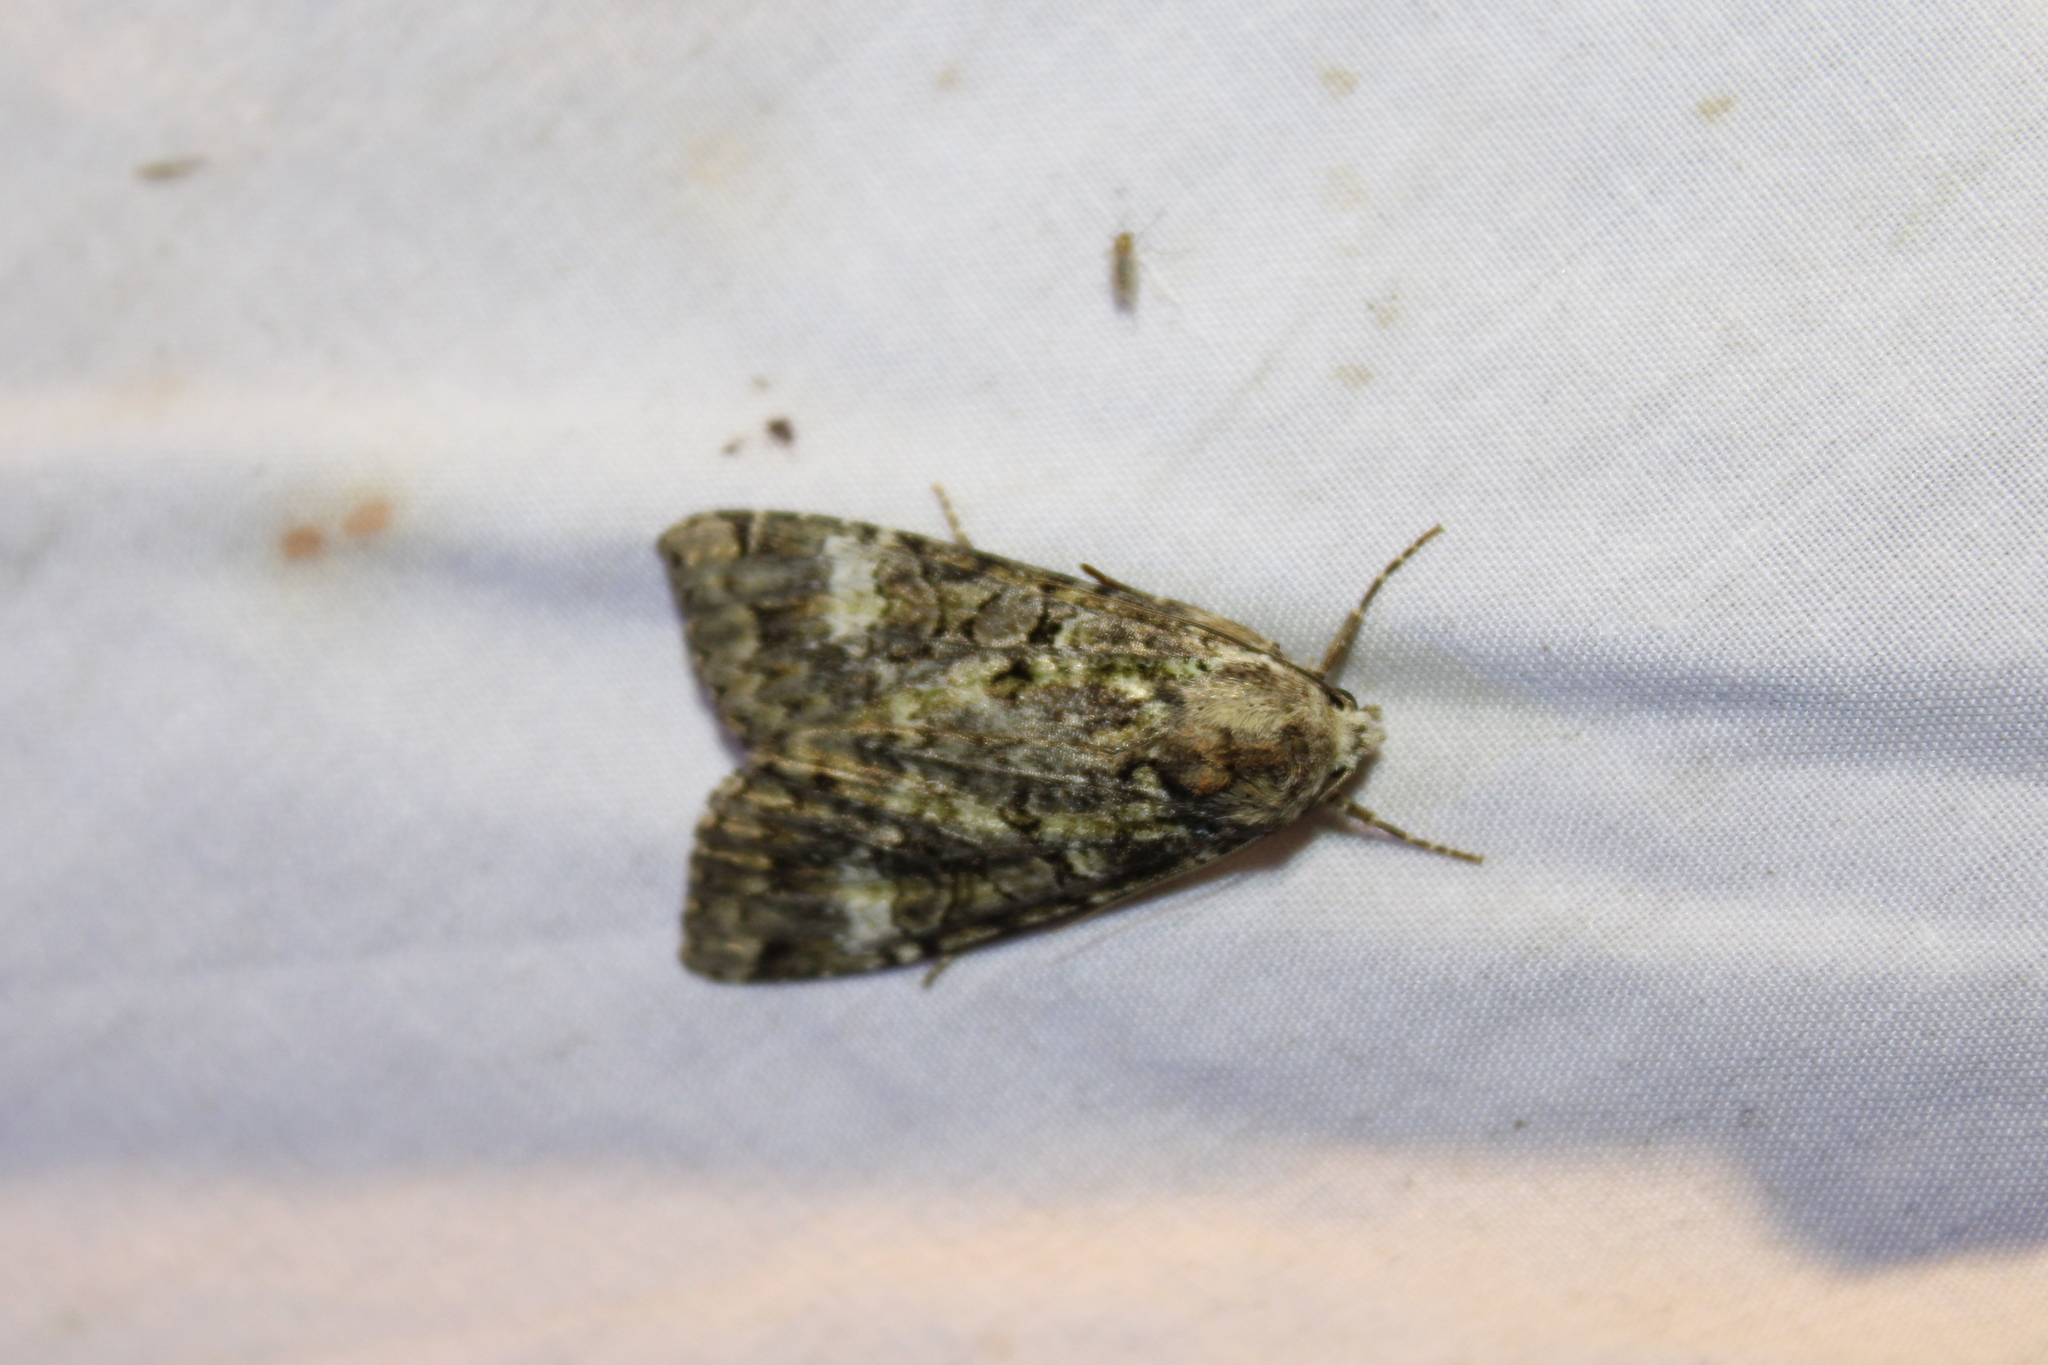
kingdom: Animalia
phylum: Arthropoda
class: Insecta
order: Lepidoptera
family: Noctuidae
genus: Anaplectoides
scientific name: Anaplectoides prasina
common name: Green arches
